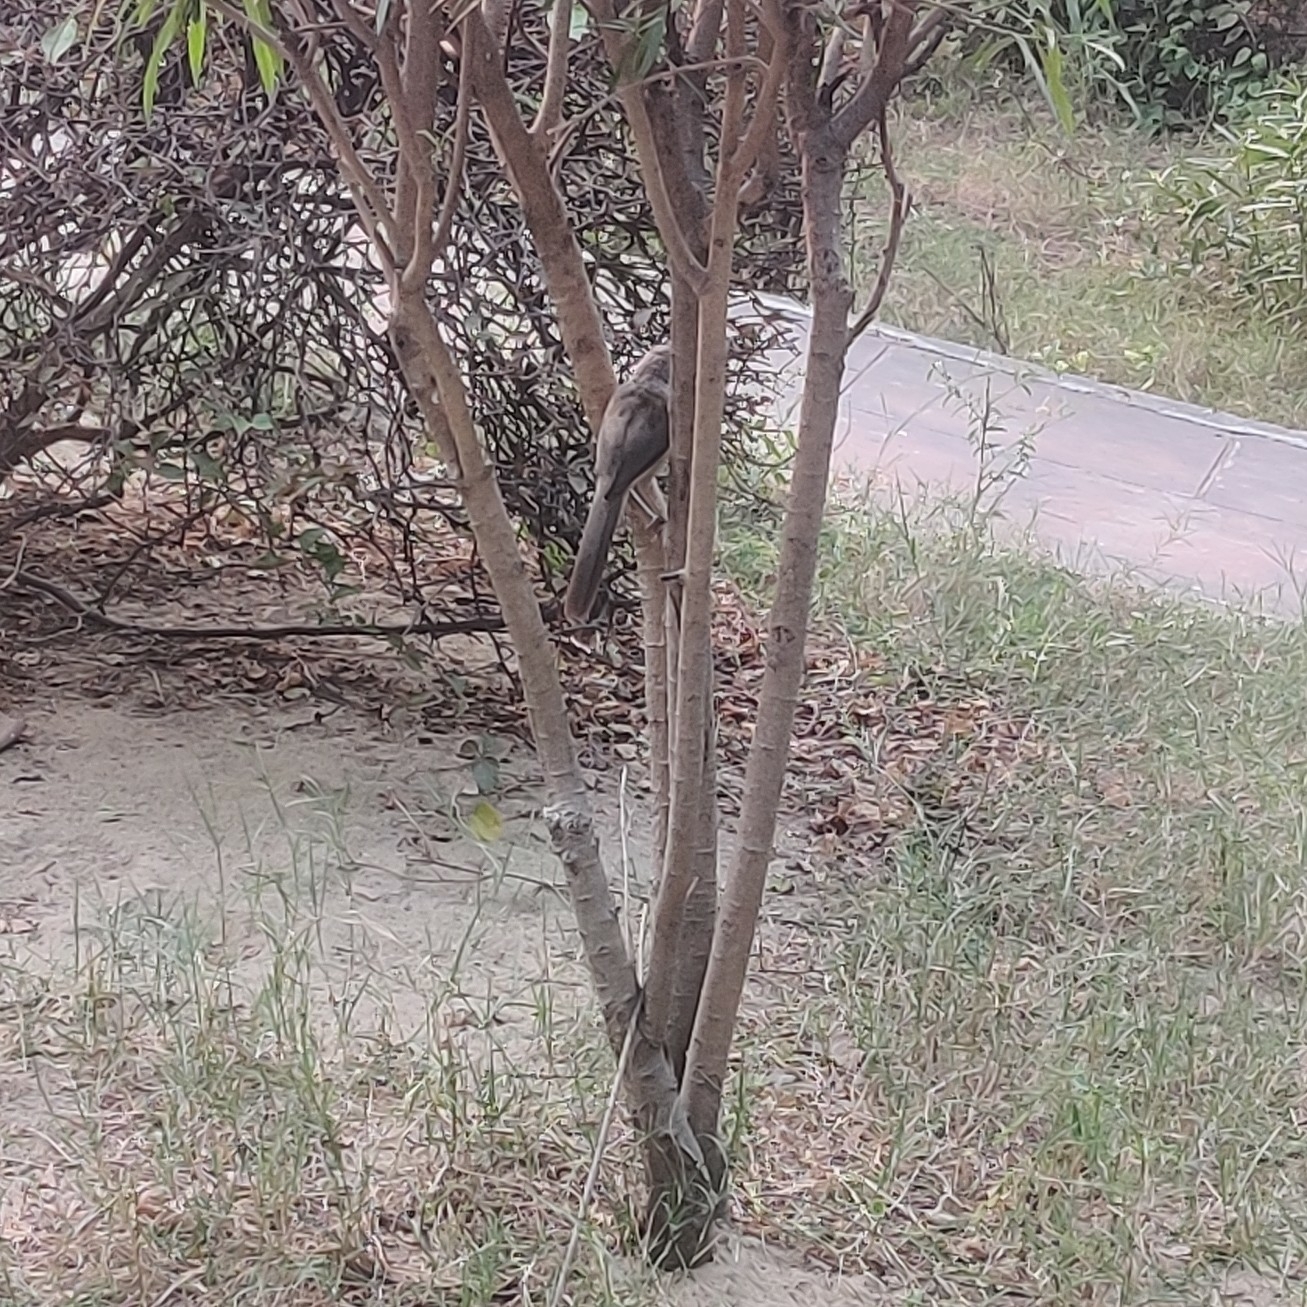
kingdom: Animalia
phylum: Chordata
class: Aves
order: Passeriformes
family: Leiothrichidae
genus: Turdoides
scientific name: Turdoides malcolmi
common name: Large grey babbler
